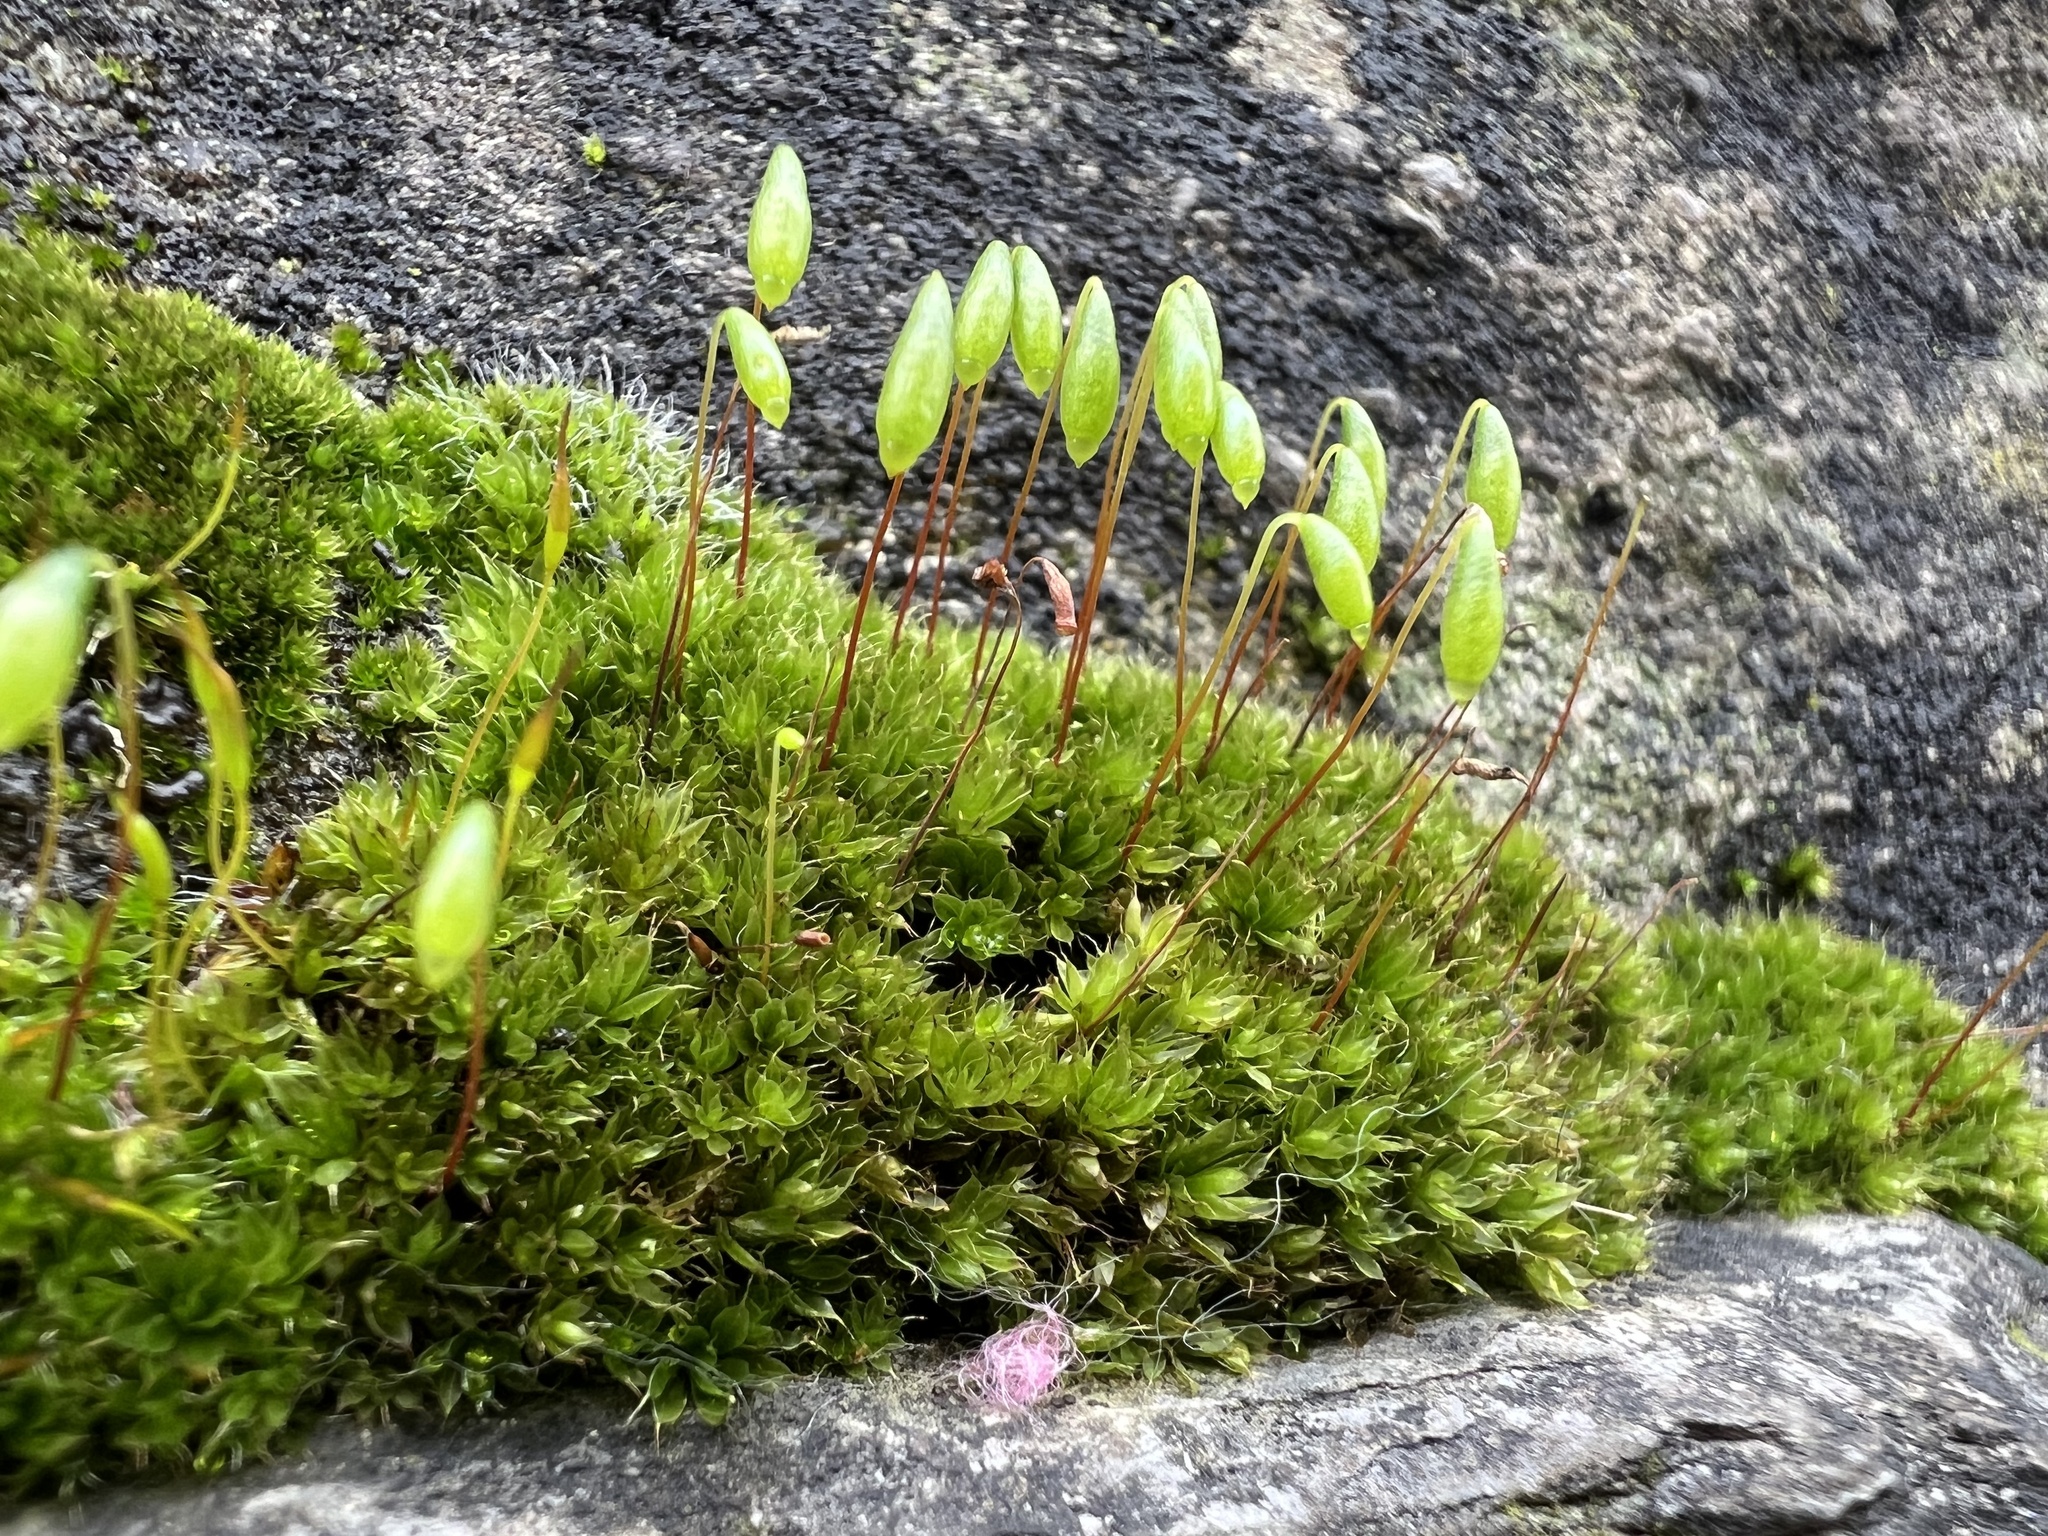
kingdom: Plantae
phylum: Bryophyta
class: Bryopsida
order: Bryales
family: Bryaceae
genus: Rosulabryum
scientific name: Rosulabryum capillare
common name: Capillary thread-moss
